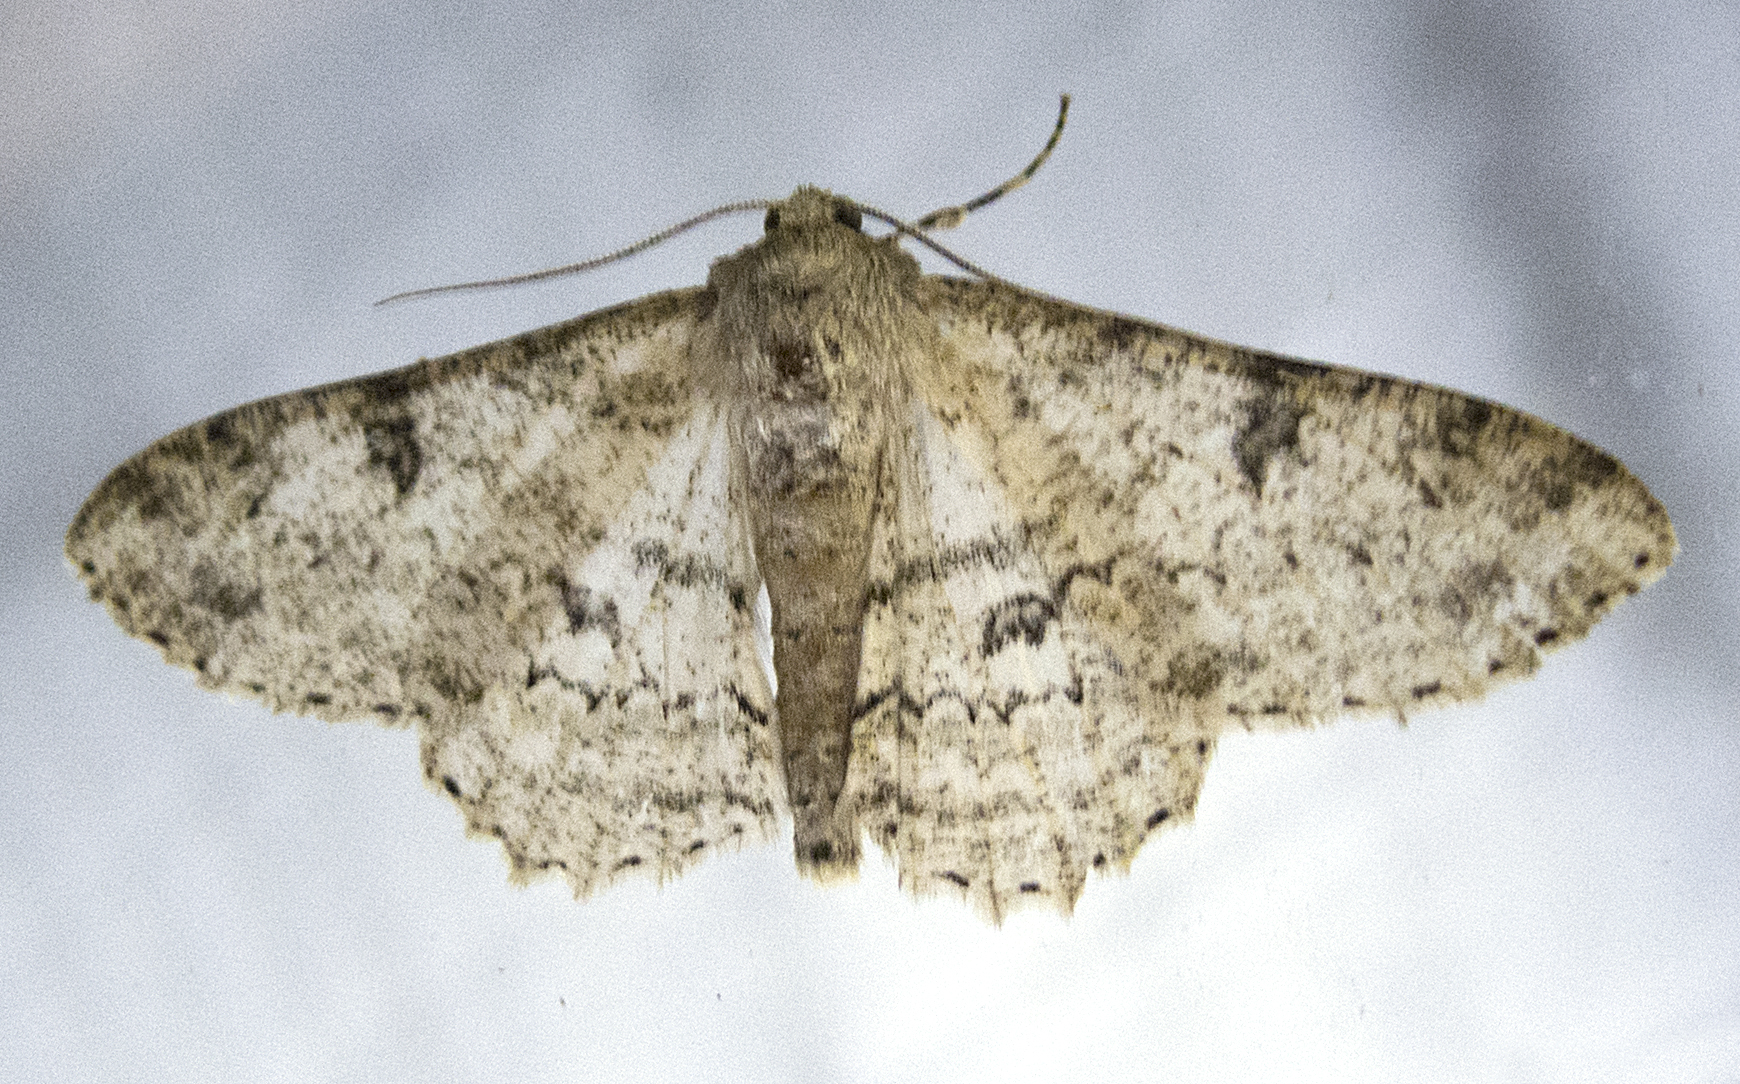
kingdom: Animalia
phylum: Arthropoda
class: Insecta
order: Lepidoptera
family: Geometridae
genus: Ascotis
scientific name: Ascotis selenaria
